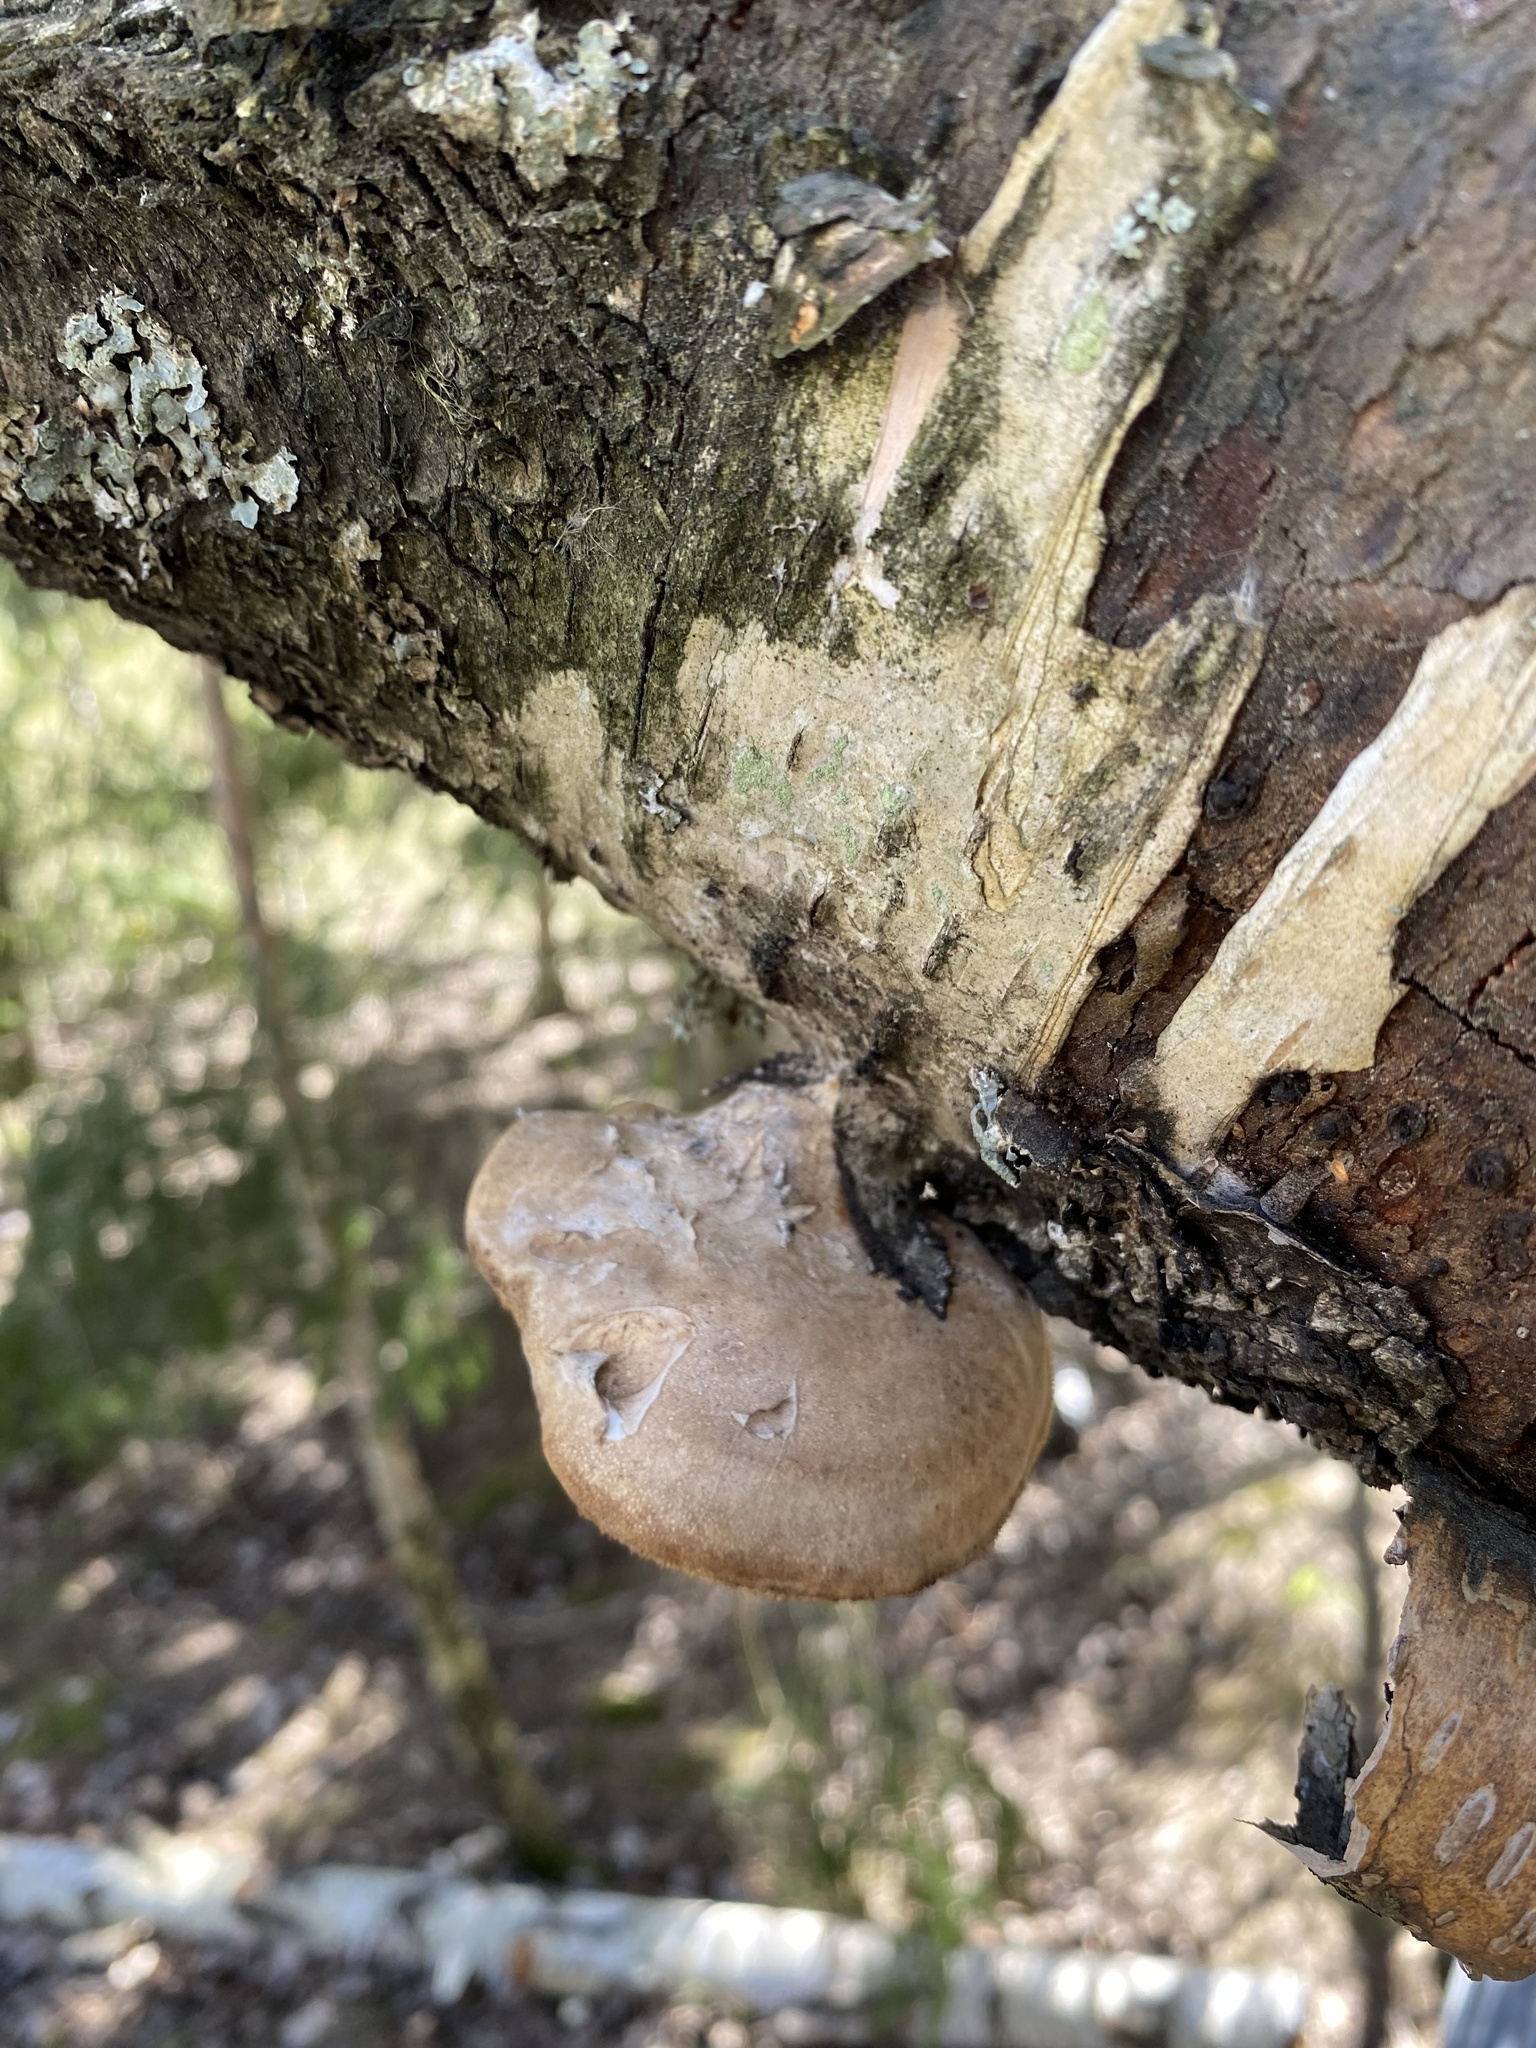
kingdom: Fungi
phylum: Basidiomycota
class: Agaricomycetes
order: Polyporales
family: Fomitopsidaceae
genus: Fomitopsis
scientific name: Fomitopsis betulina
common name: Birch polypore
